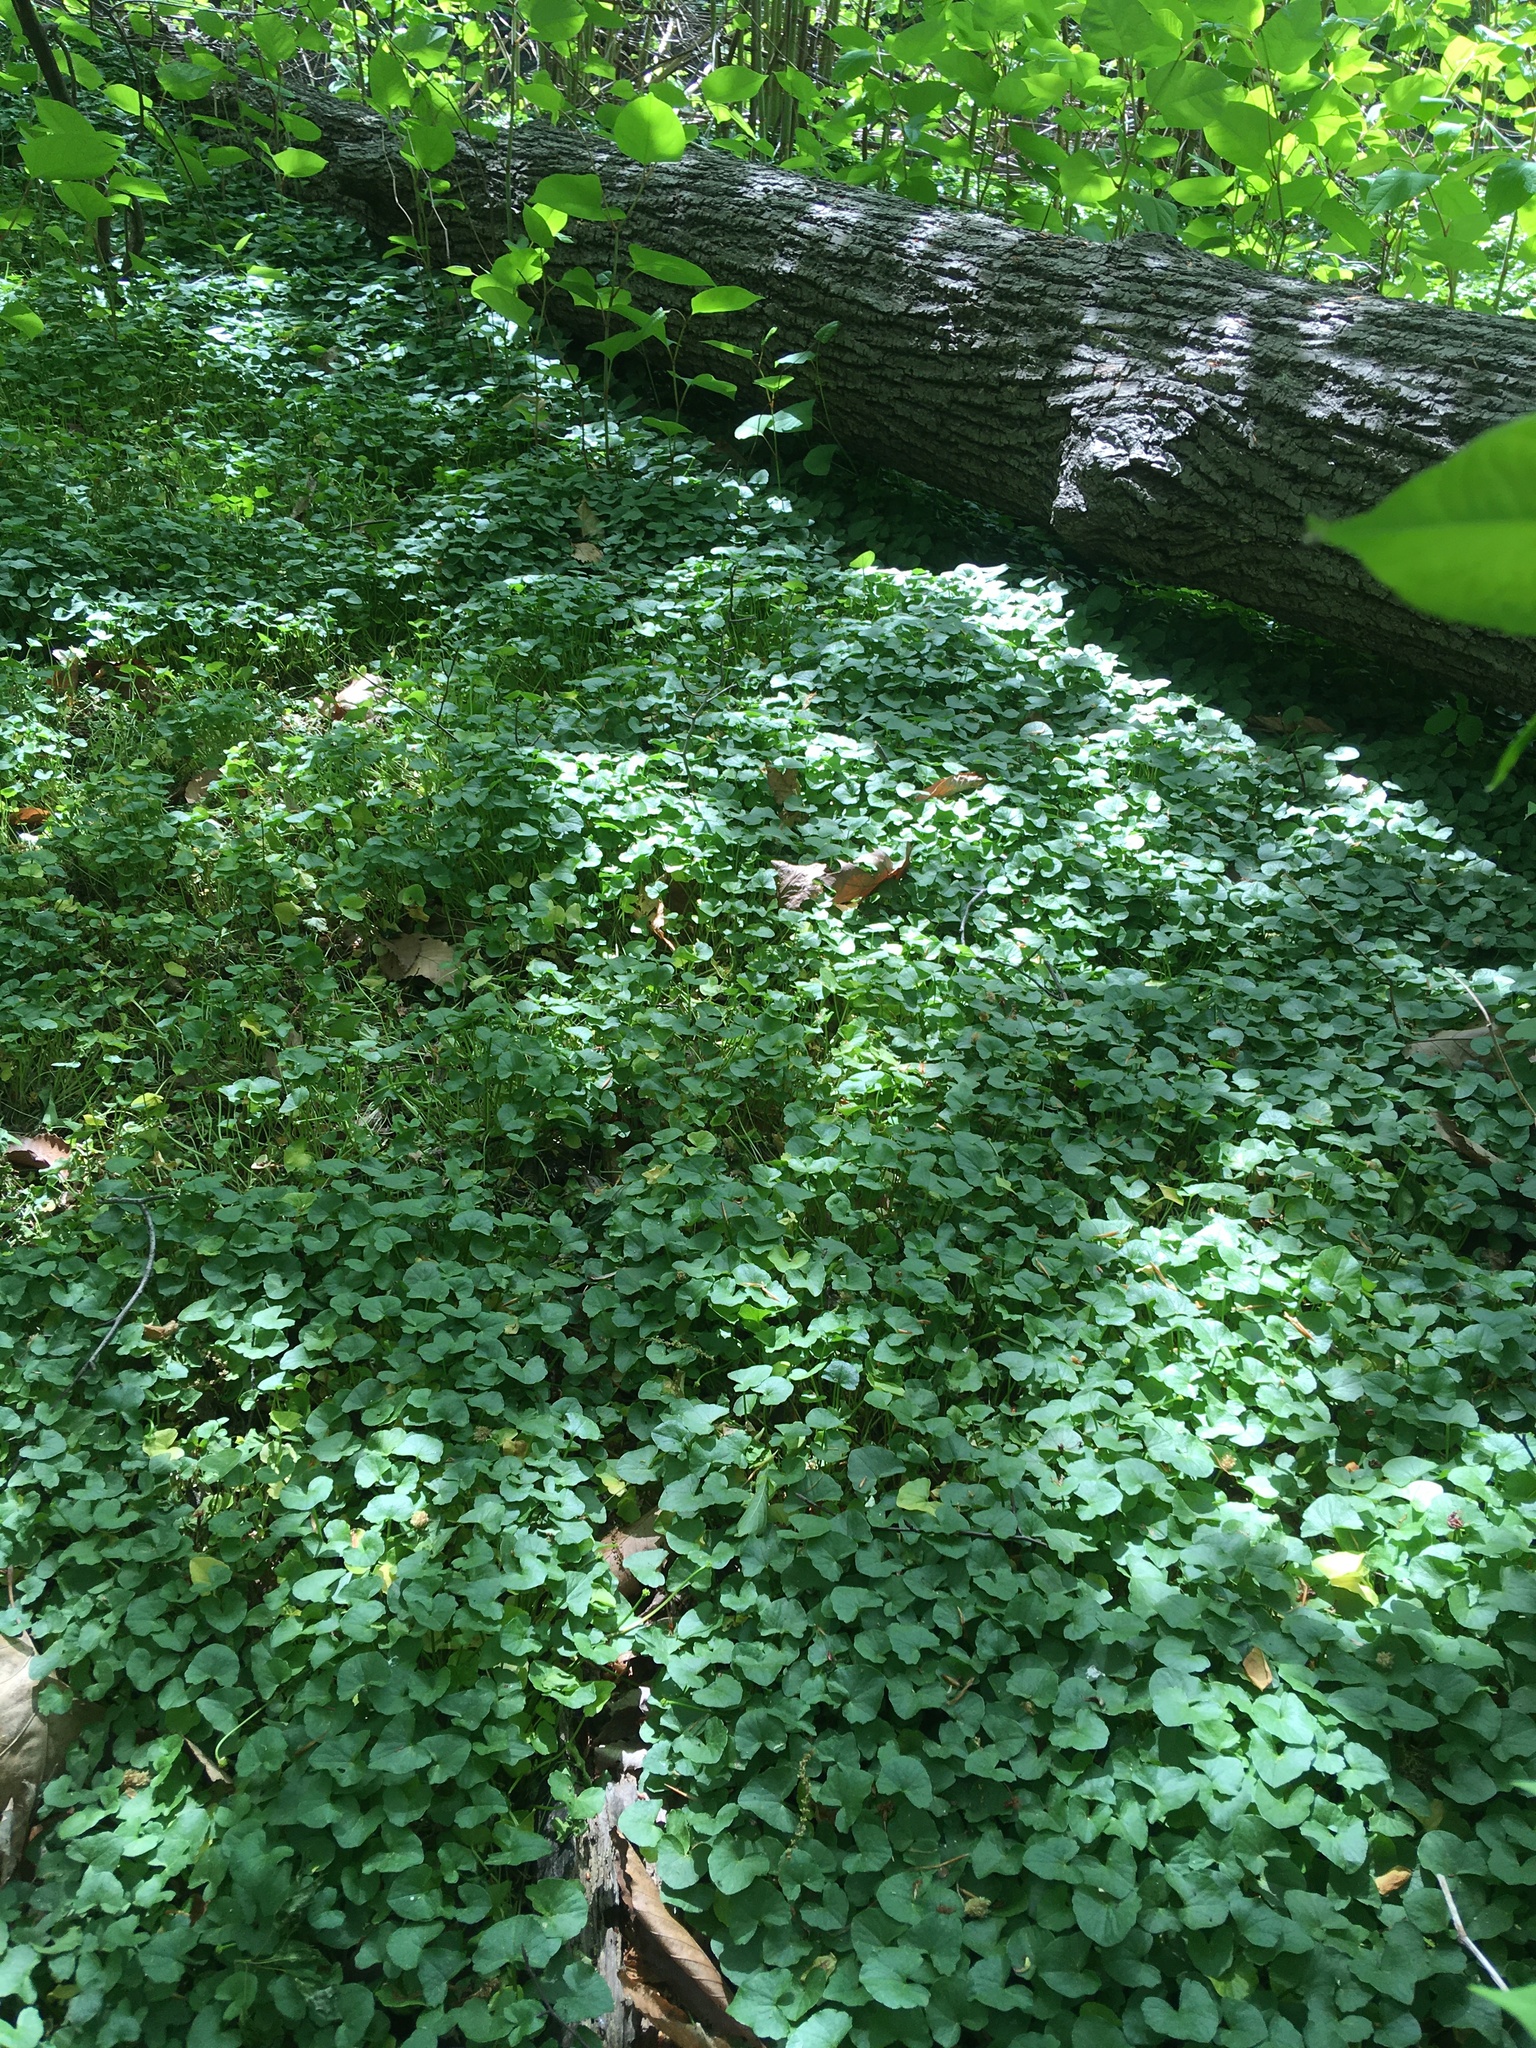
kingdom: Plantae
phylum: Tracheophyta
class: Magnoliopsida
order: Ranunculales
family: Ranunculaceae
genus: Ficaria
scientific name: Ficaria verna
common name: Lesser celandine
